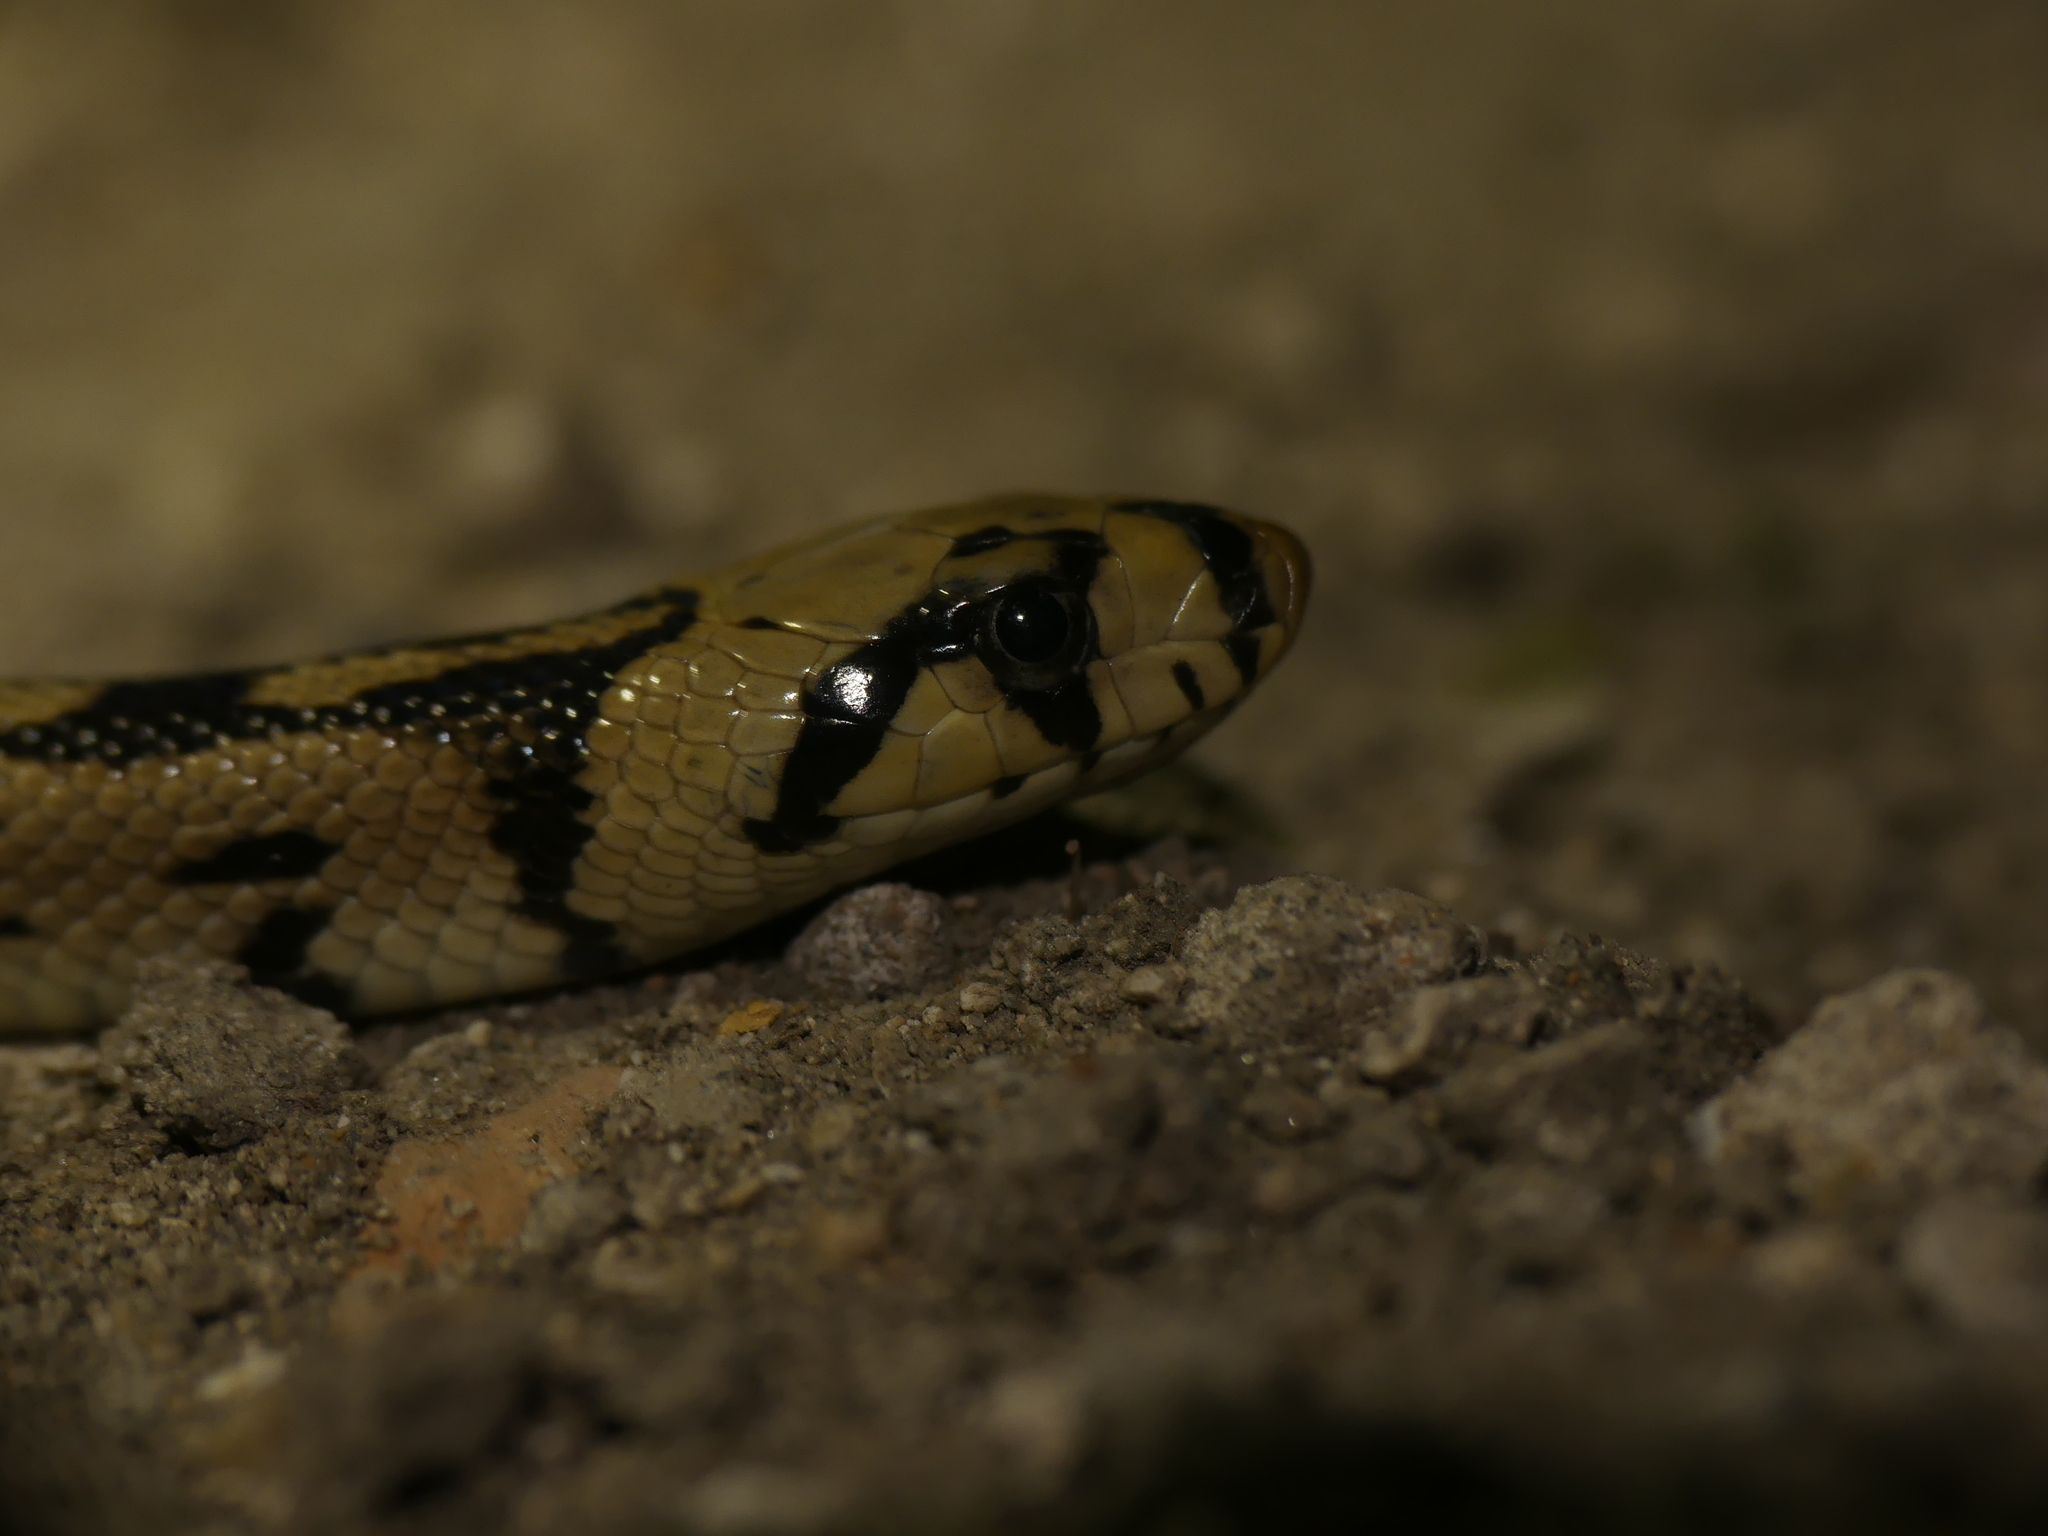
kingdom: Animalia
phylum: Chordata
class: Squamata
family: Colubridae
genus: Zamenis
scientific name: Zamenis scalaris
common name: Ladder snakes
